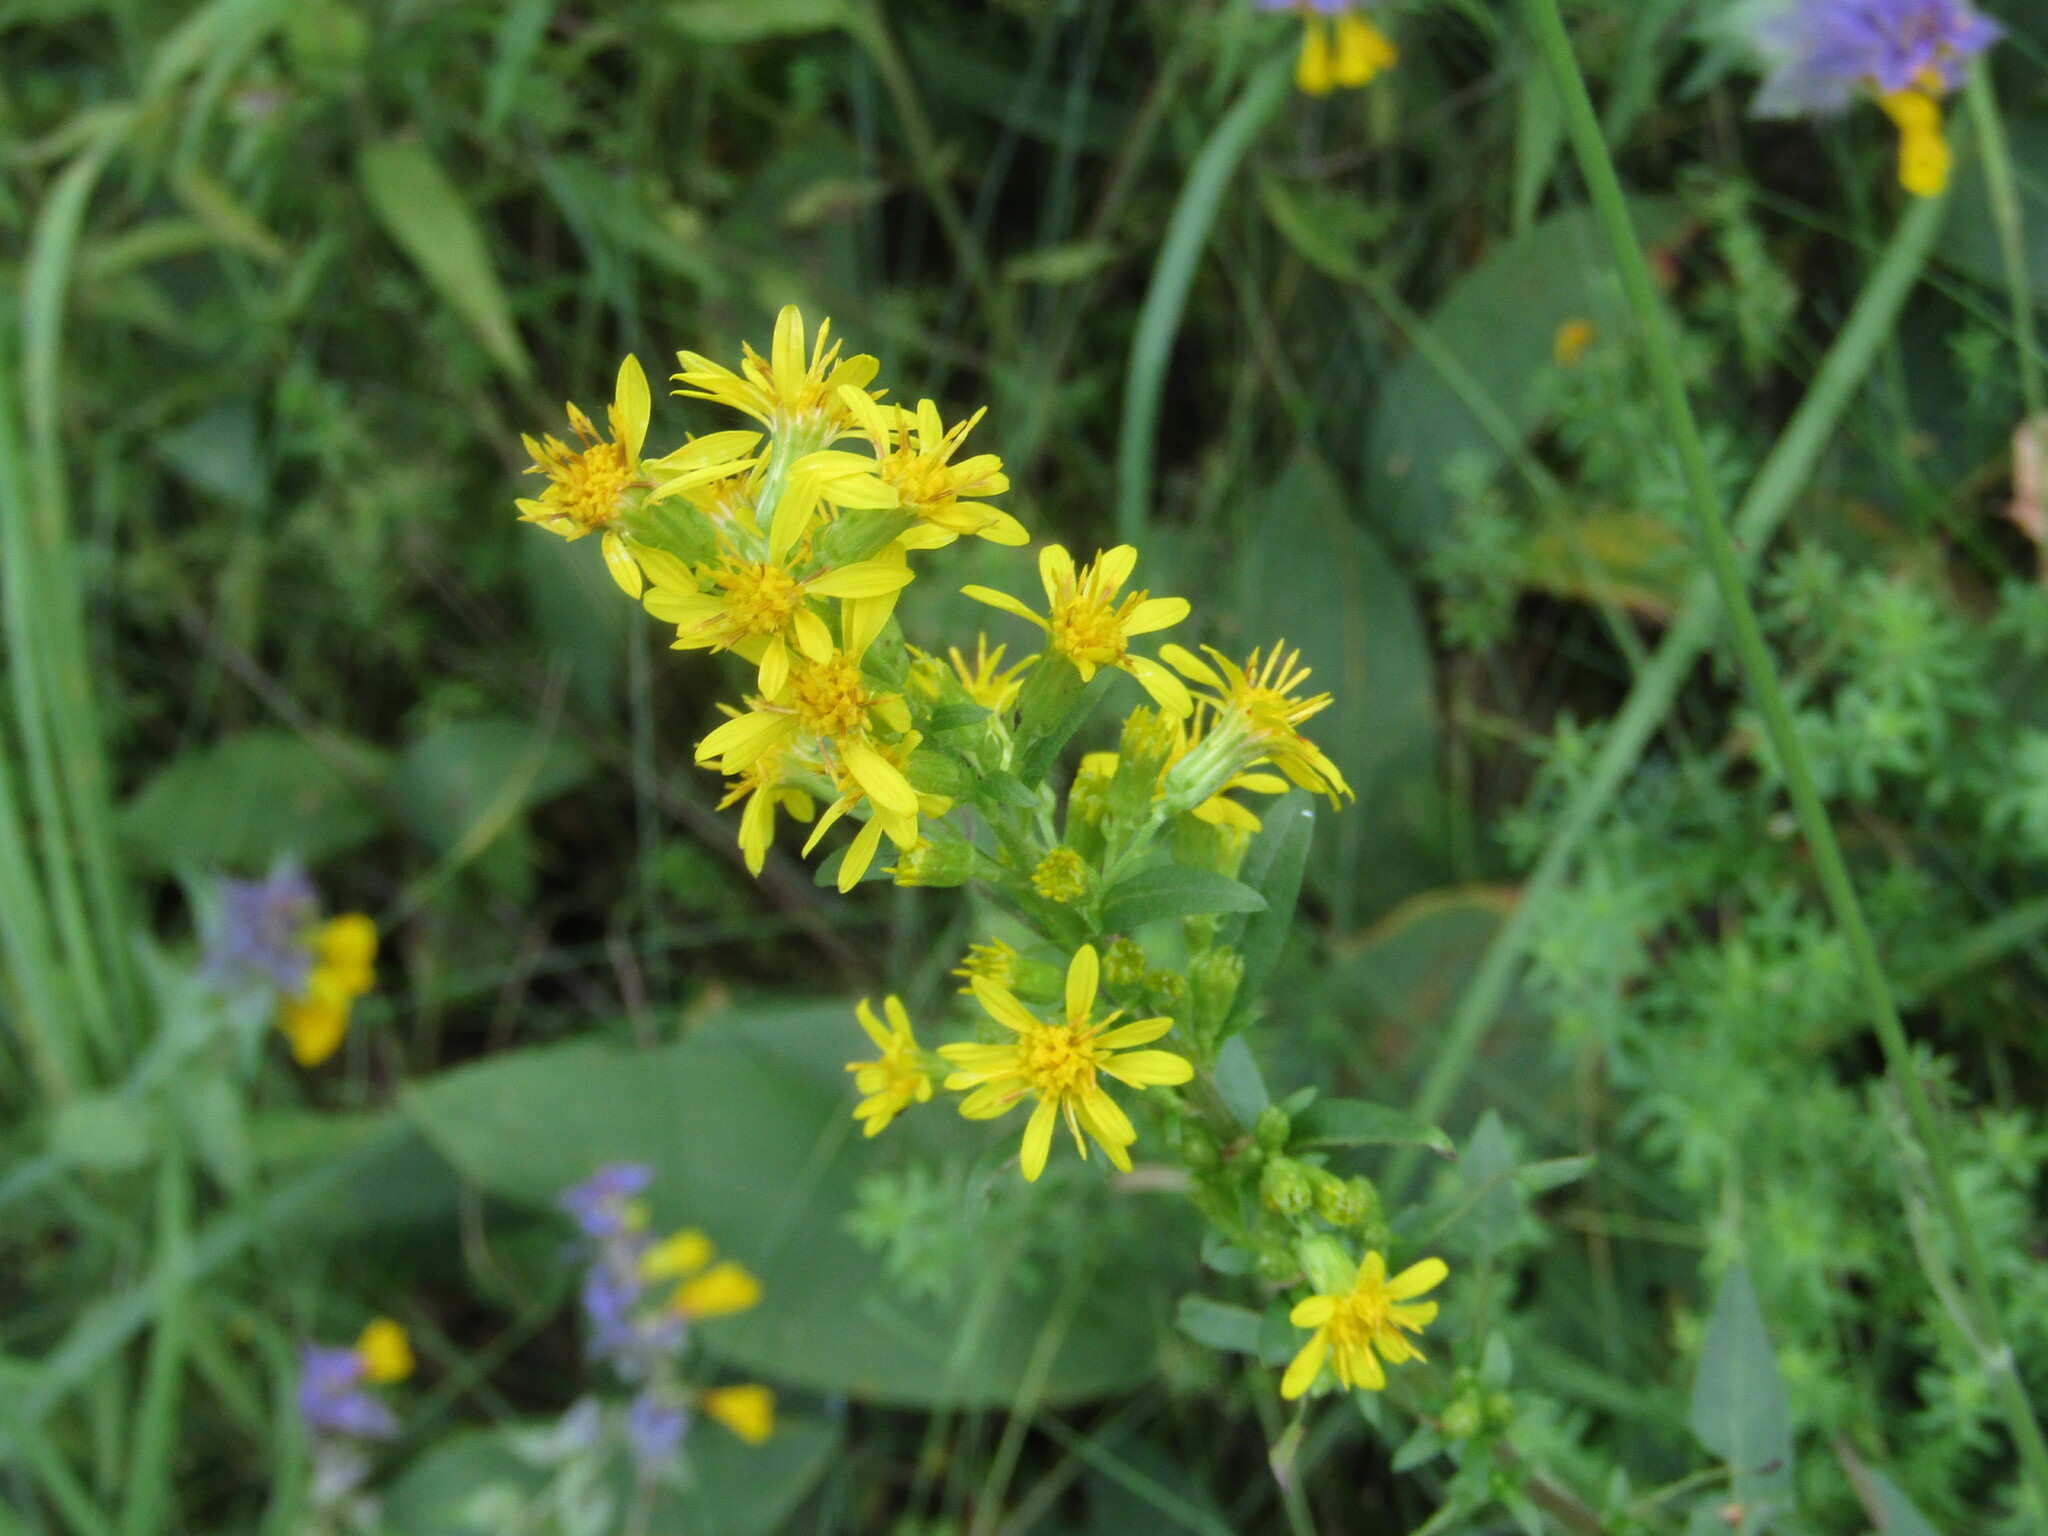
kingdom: Plantae
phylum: Tracheophyta
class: Magnoliopsida
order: Asterales
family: Asteraceae
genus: Solidago
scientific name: Solidago virgaurea
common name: Goldenrod
